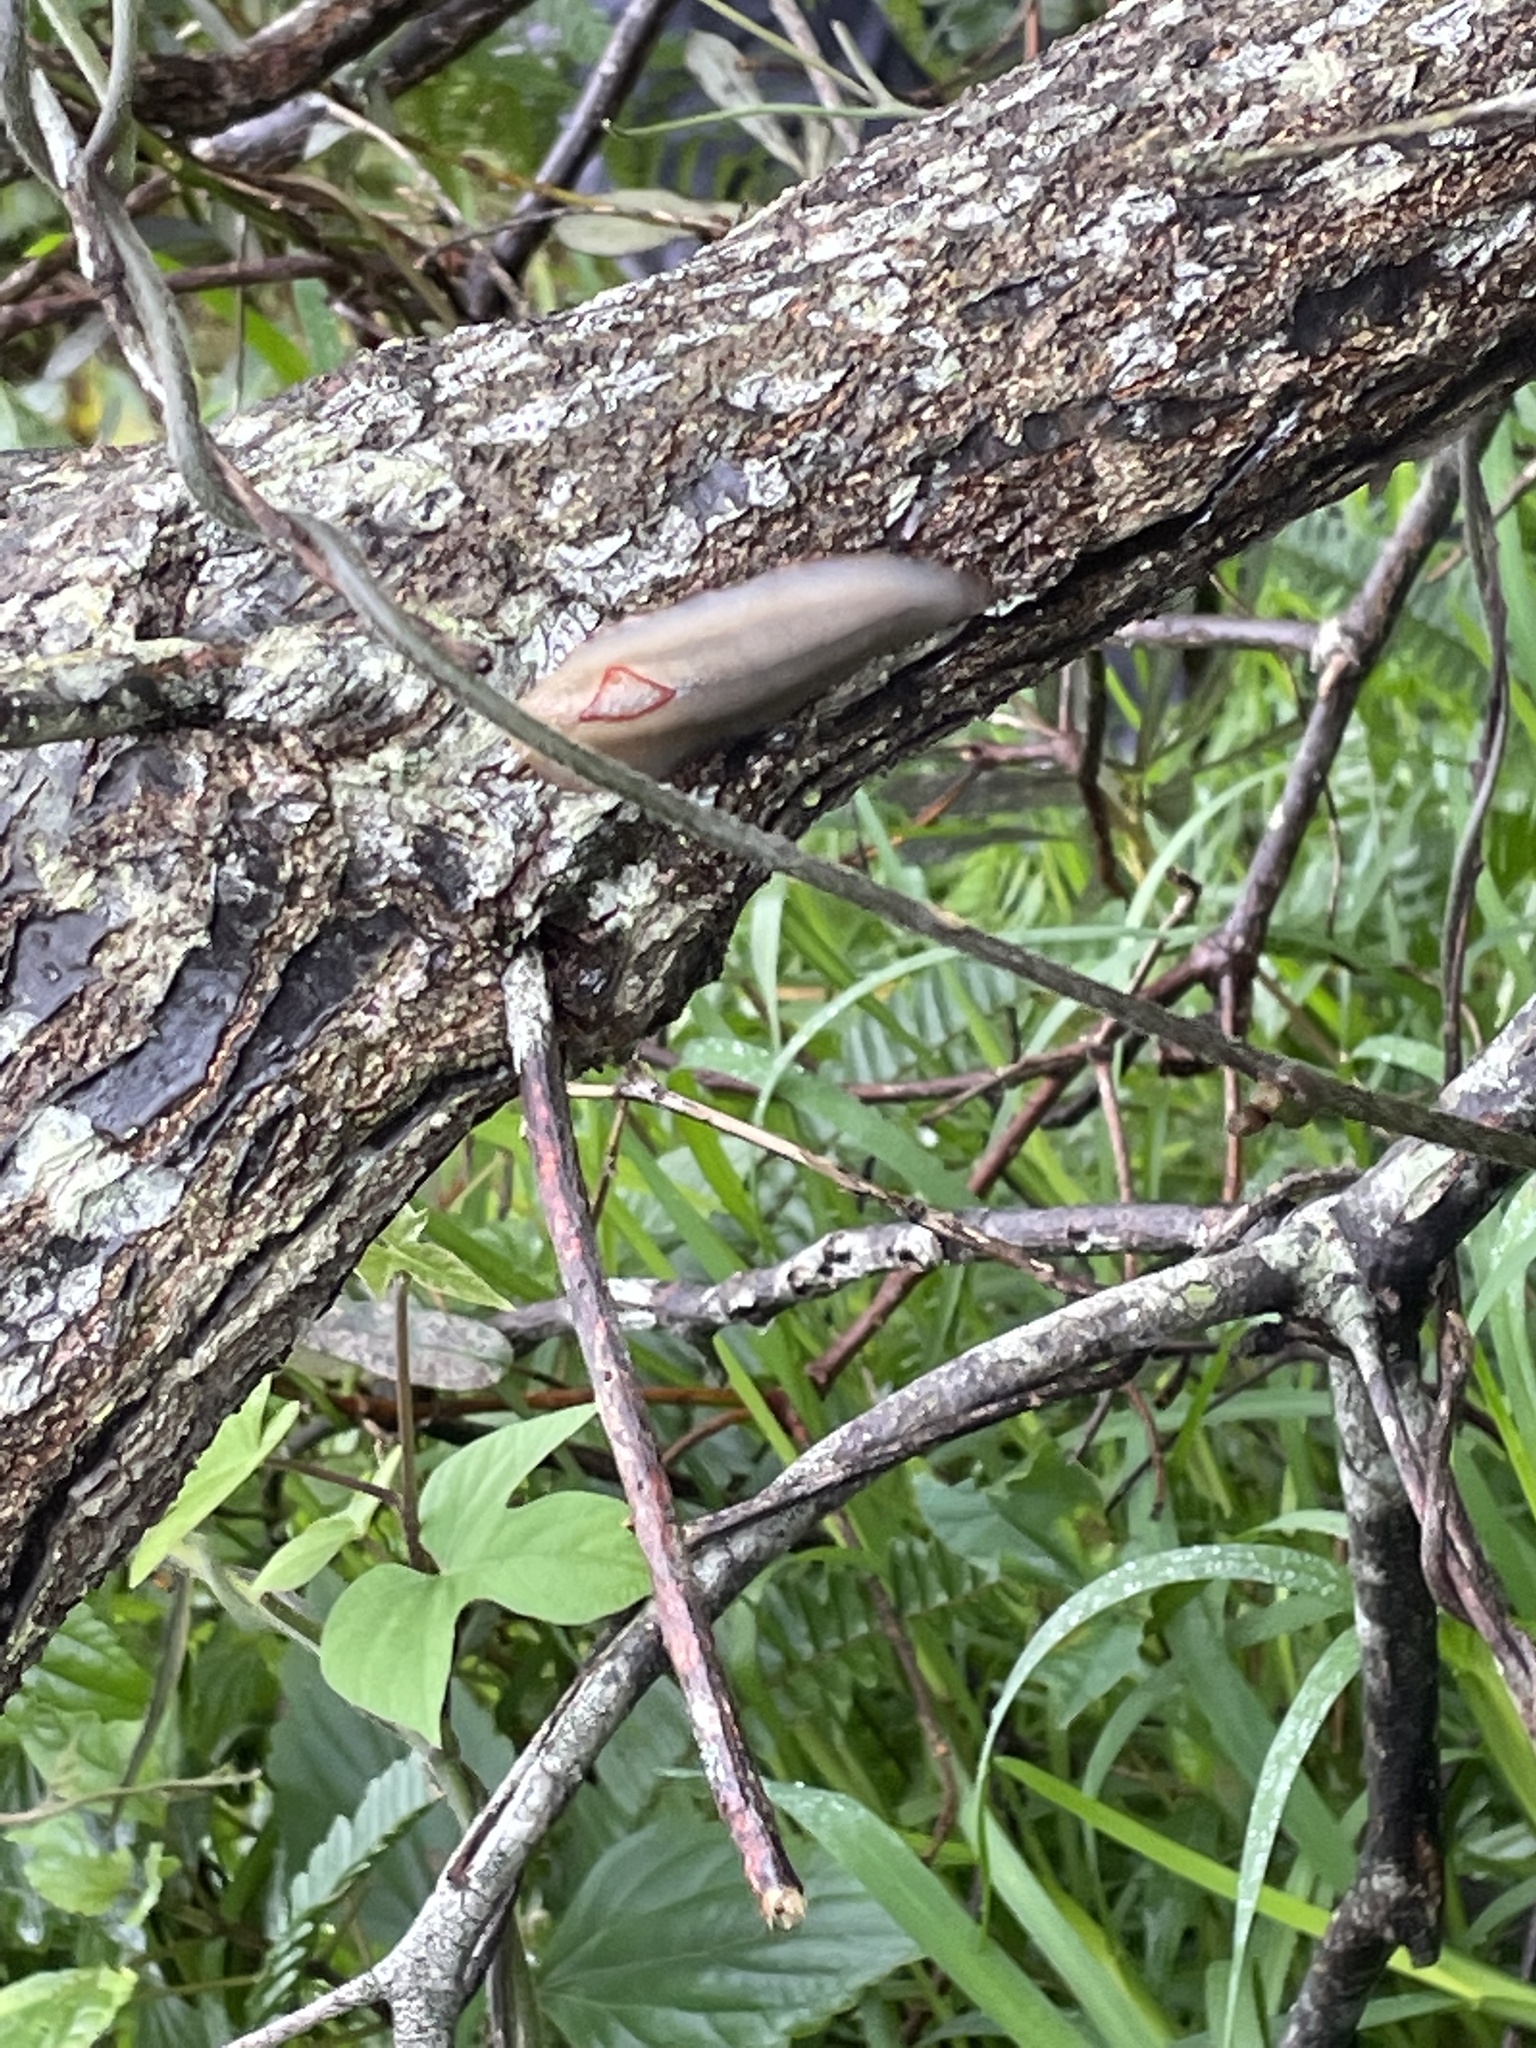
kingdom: Animalia
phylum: Mollusca
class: Gastropoda
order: Stylommatophora
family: Athoracophoridae
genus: Triboniophorus
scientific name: Triboniophorus graeffei
